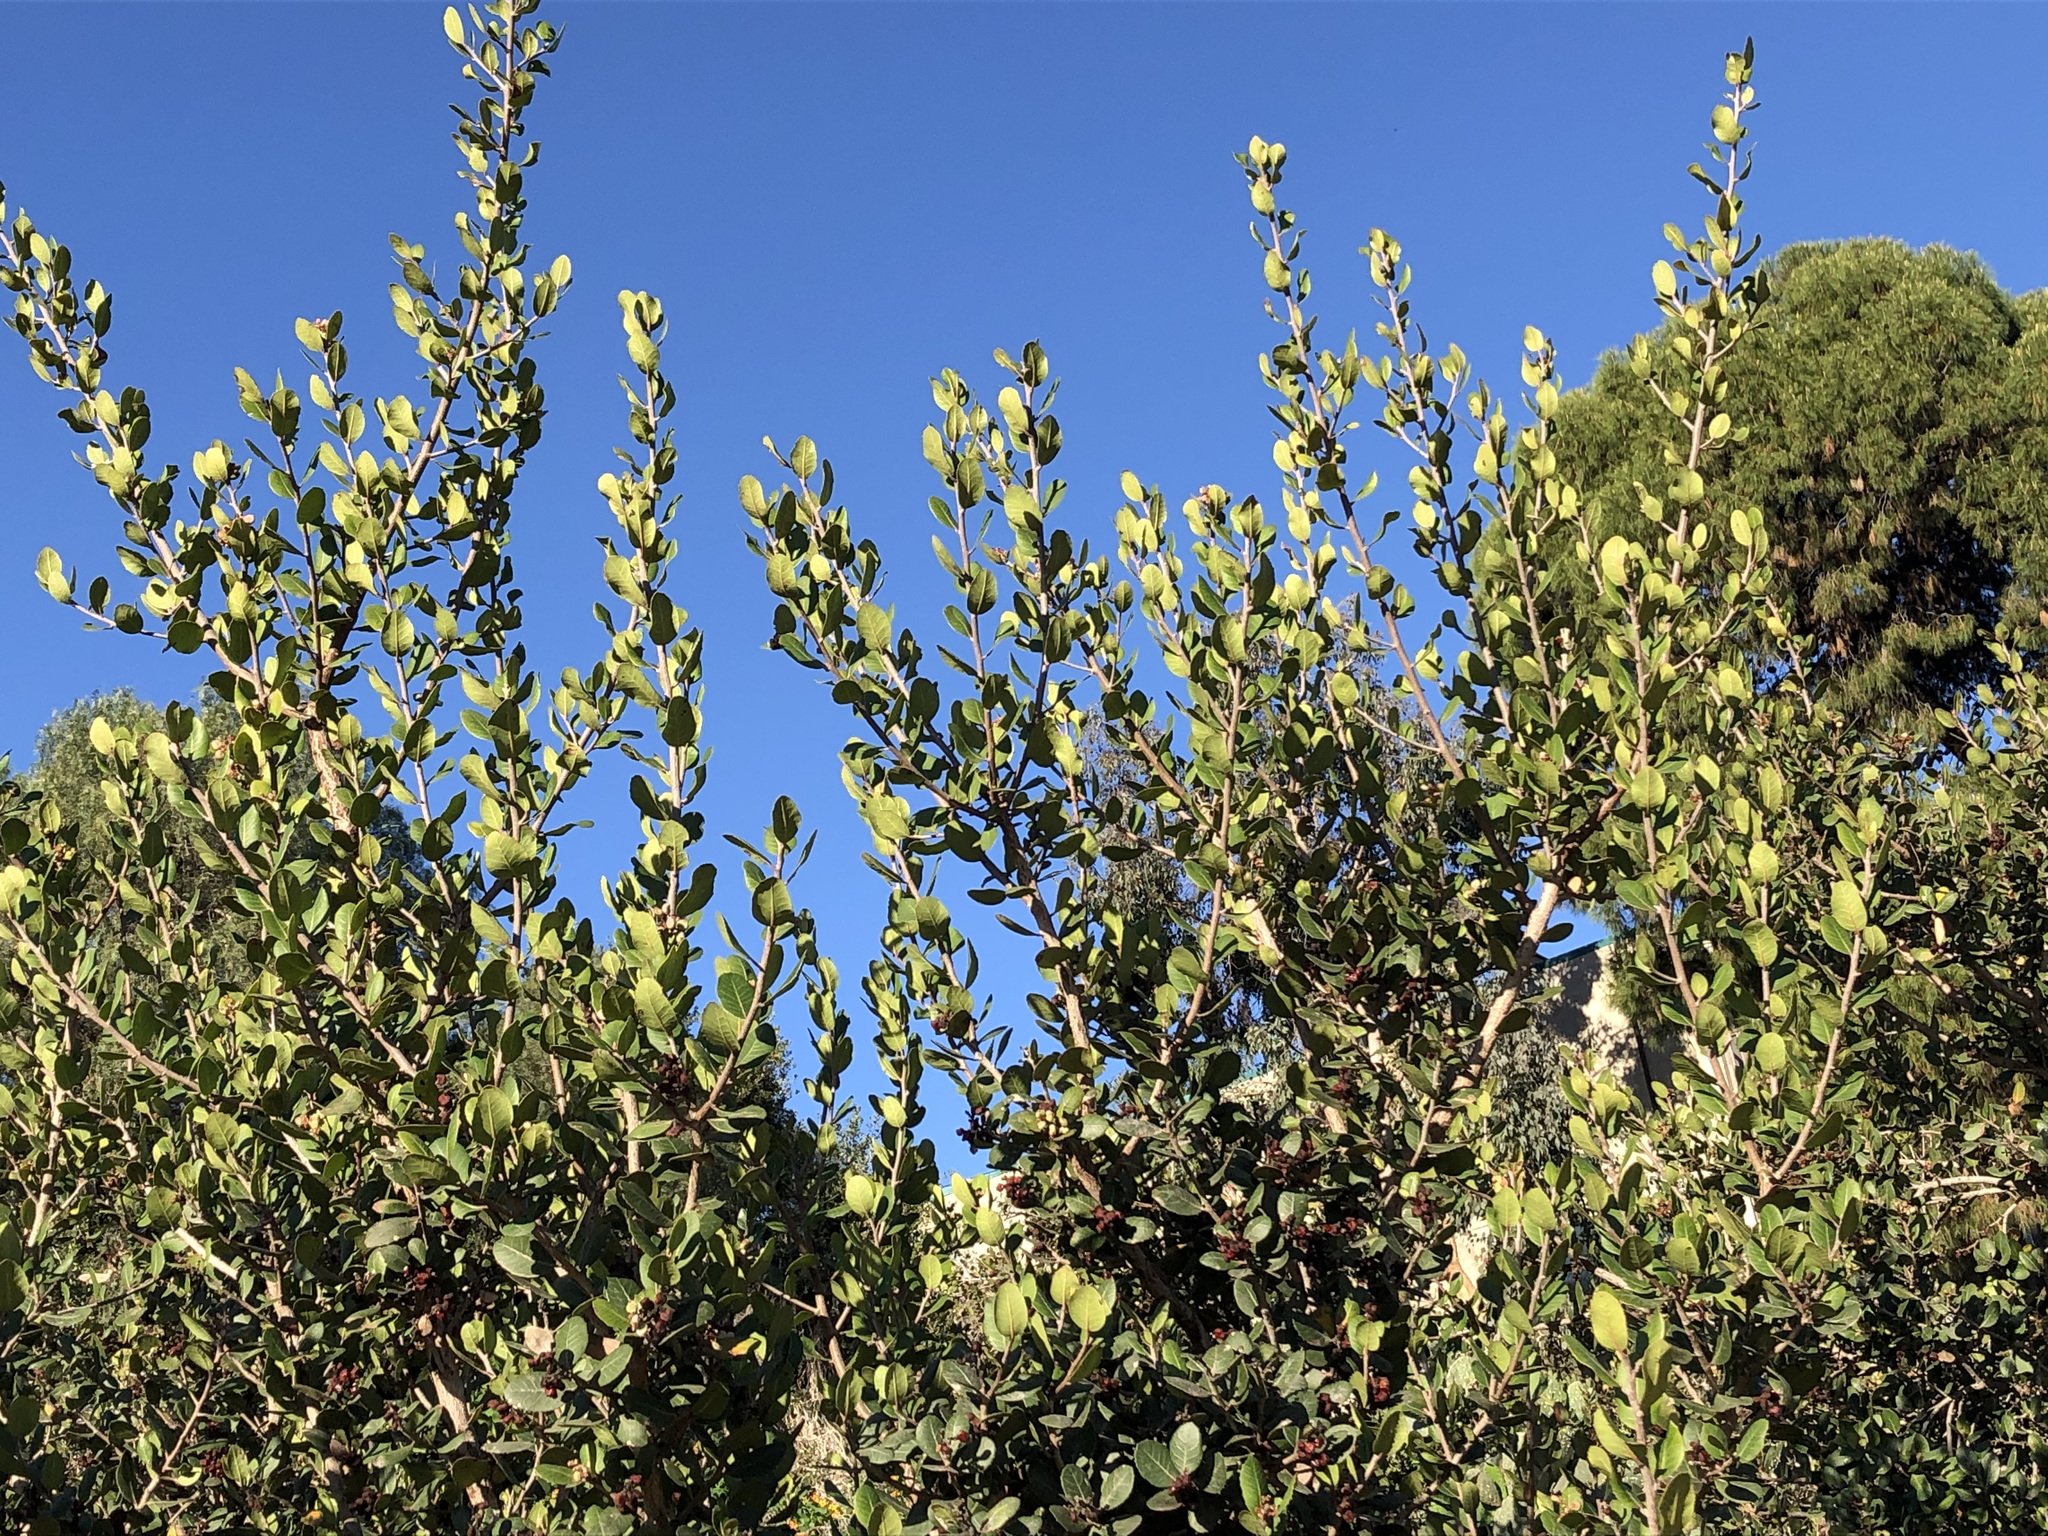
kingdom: Plantae
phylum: Tracheophyta
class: Magnoliopsida
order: Sapindales
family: Anacardiaceae
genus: Rhus
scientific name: Rhus integrifolia
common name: Lemonade sumac
